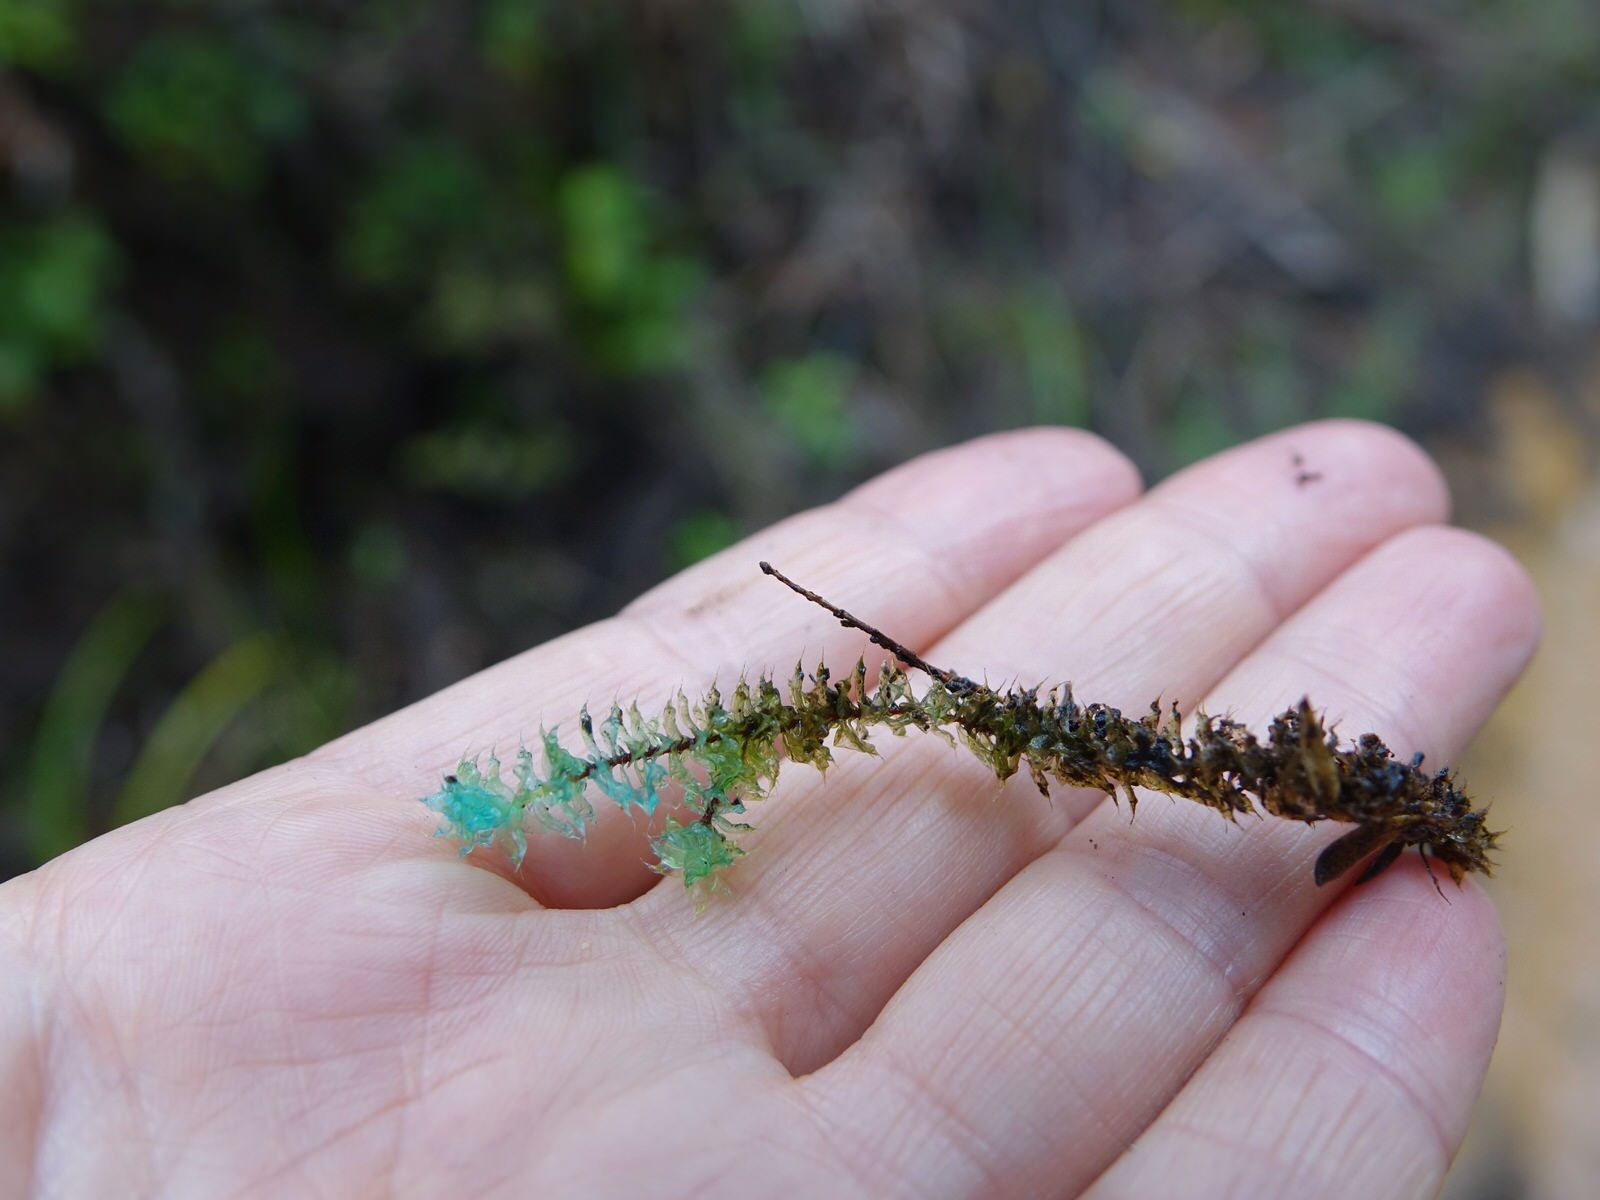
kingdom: Plantae
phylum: Bryophyta
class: Bryopsida
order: Ptychomniales
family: Ptychomniaceae
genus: Ptychomnion
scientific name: Ptychomnion aciculare
